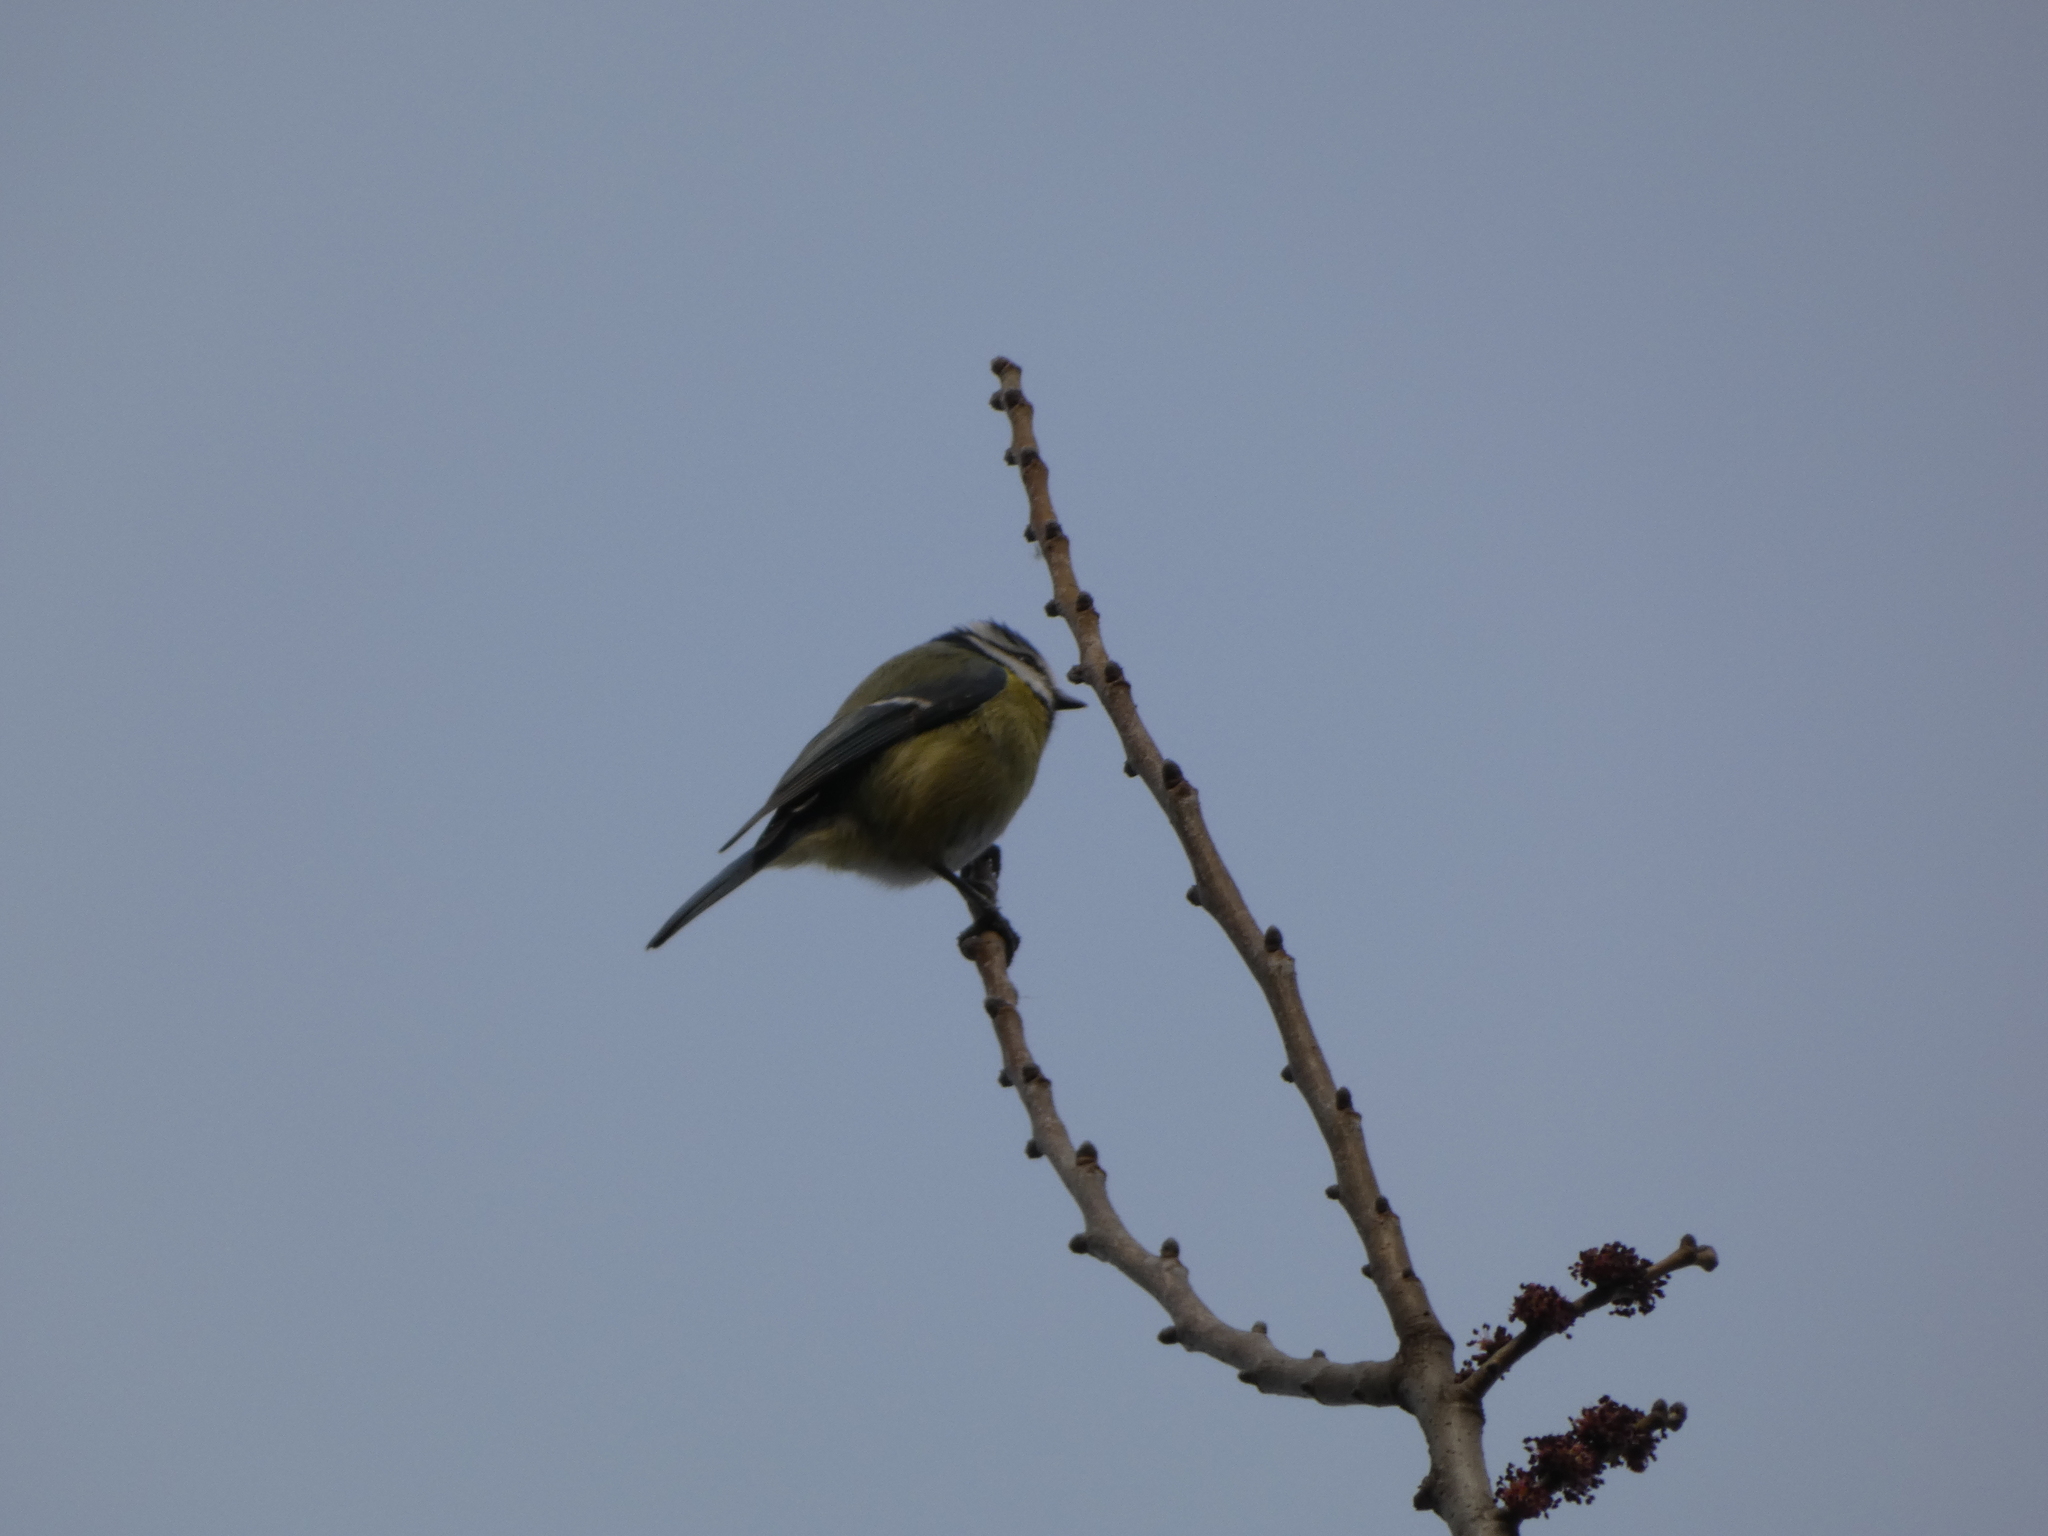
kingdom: Animalia
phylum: Chordata
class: Aves
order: Passeriformes
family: Paridae
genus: Cyanistes
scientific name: Cyanistes caeruleus
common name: Eurasian blue tit
